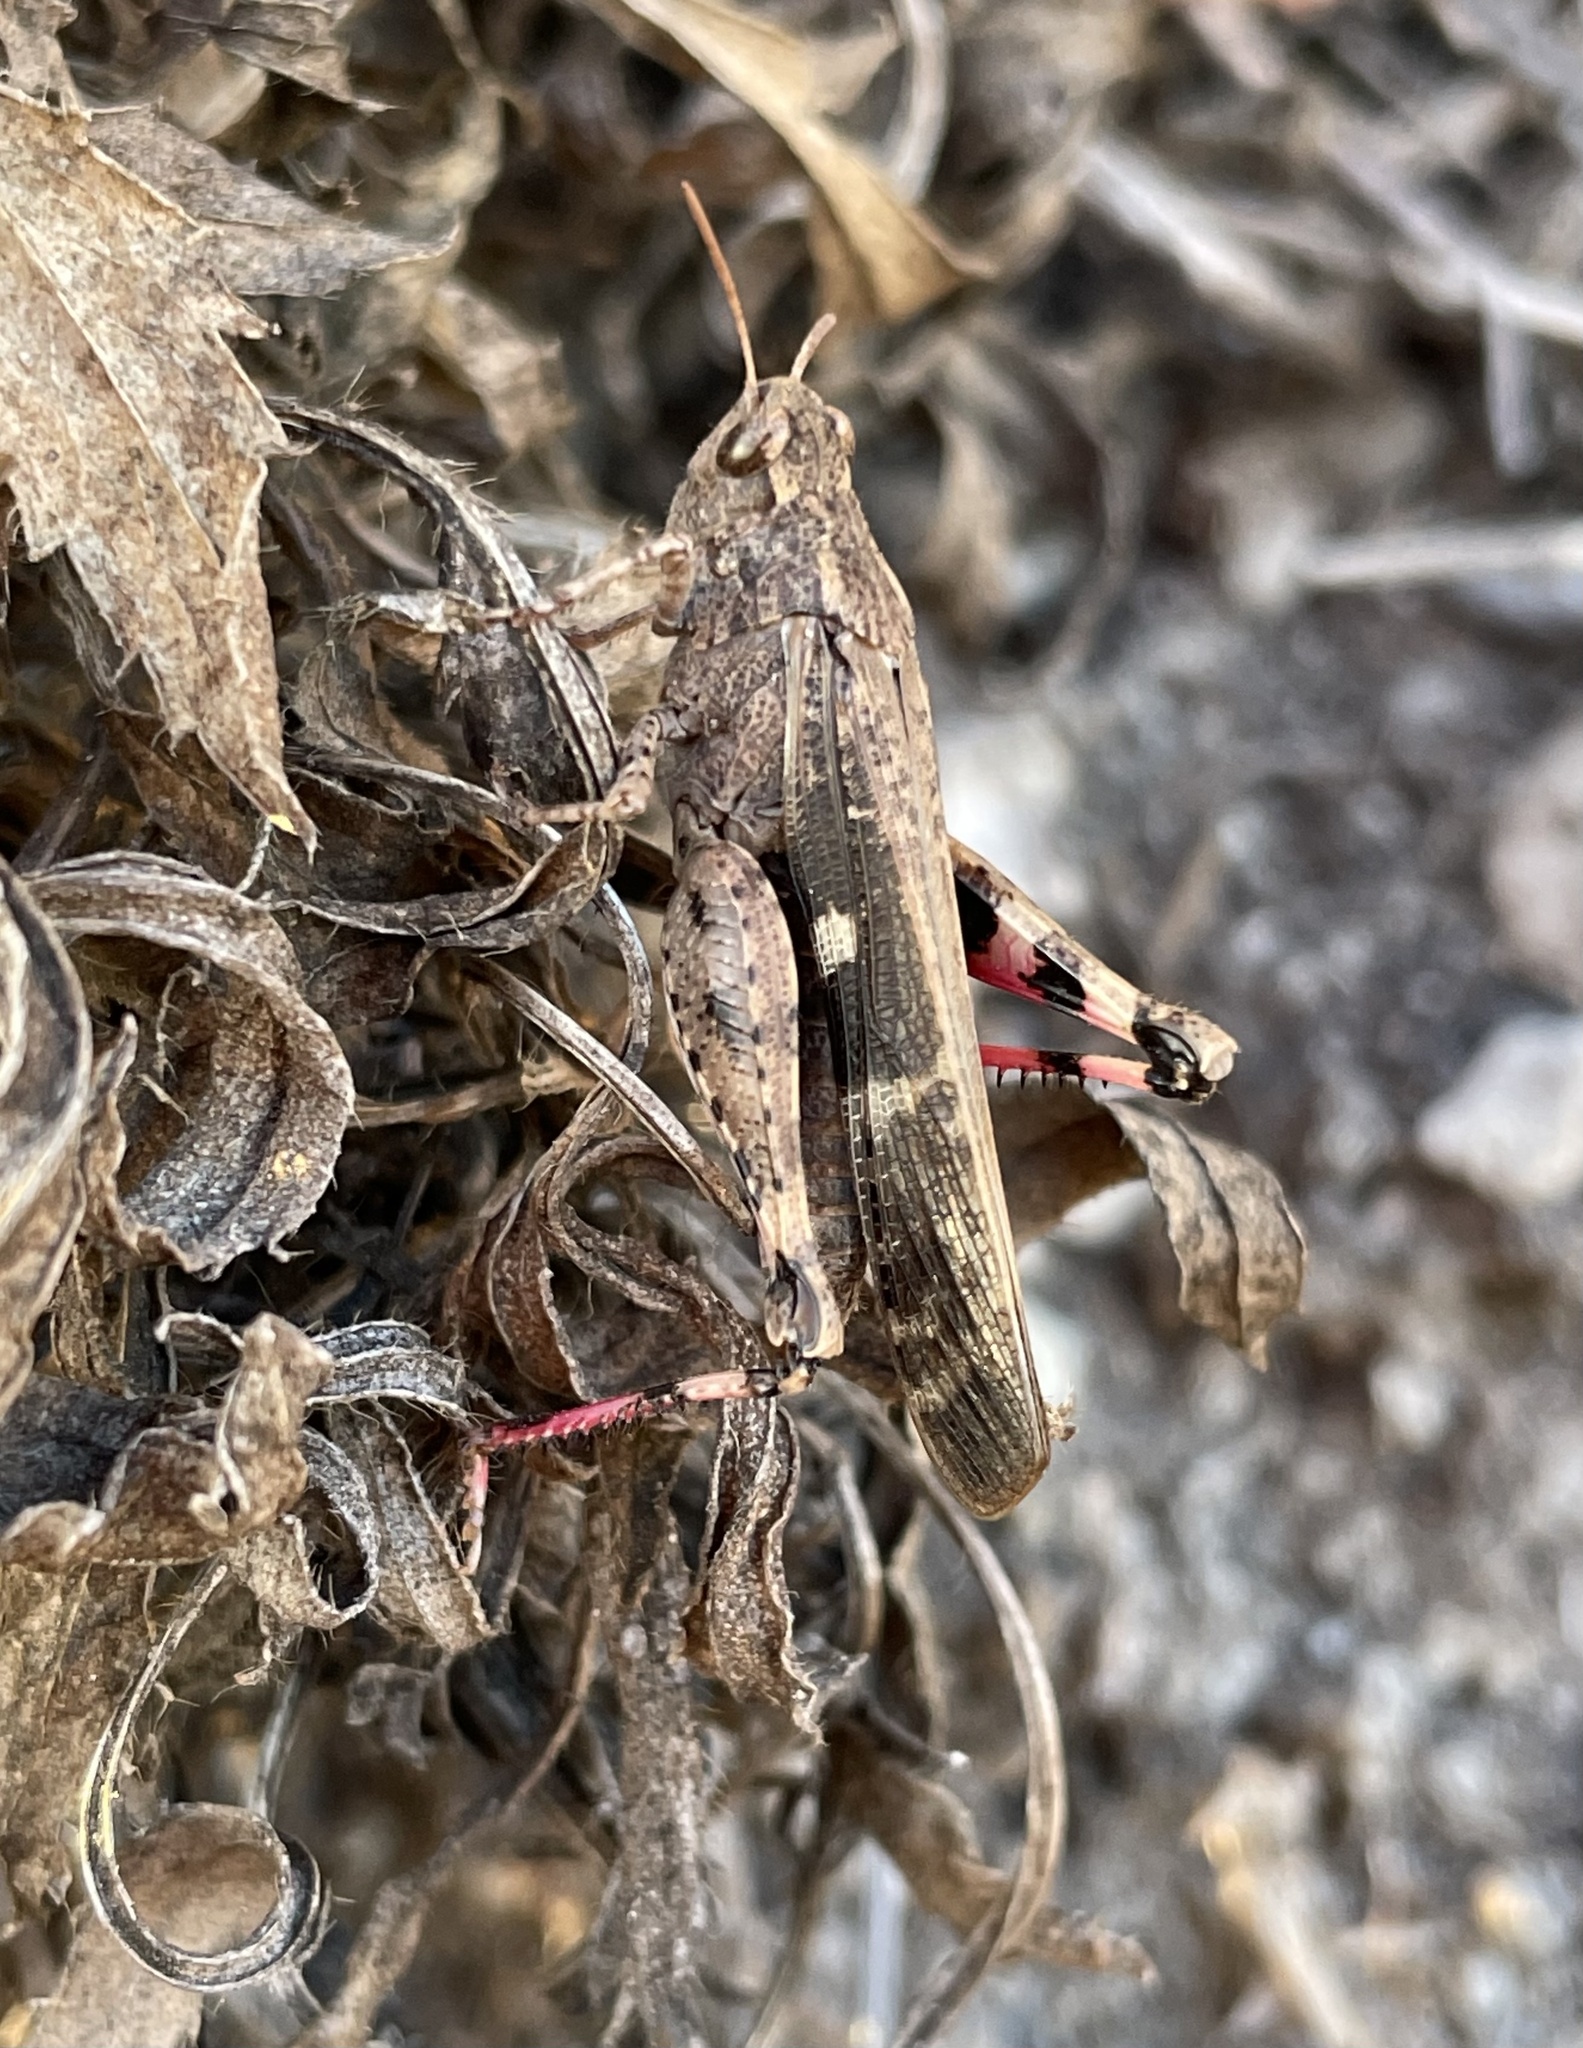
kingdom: Animalia
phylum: Arthropoda
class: Insecta
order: Orthoptera
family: Acrididae
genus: Aiolopus
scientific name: Aiolopus strepens
